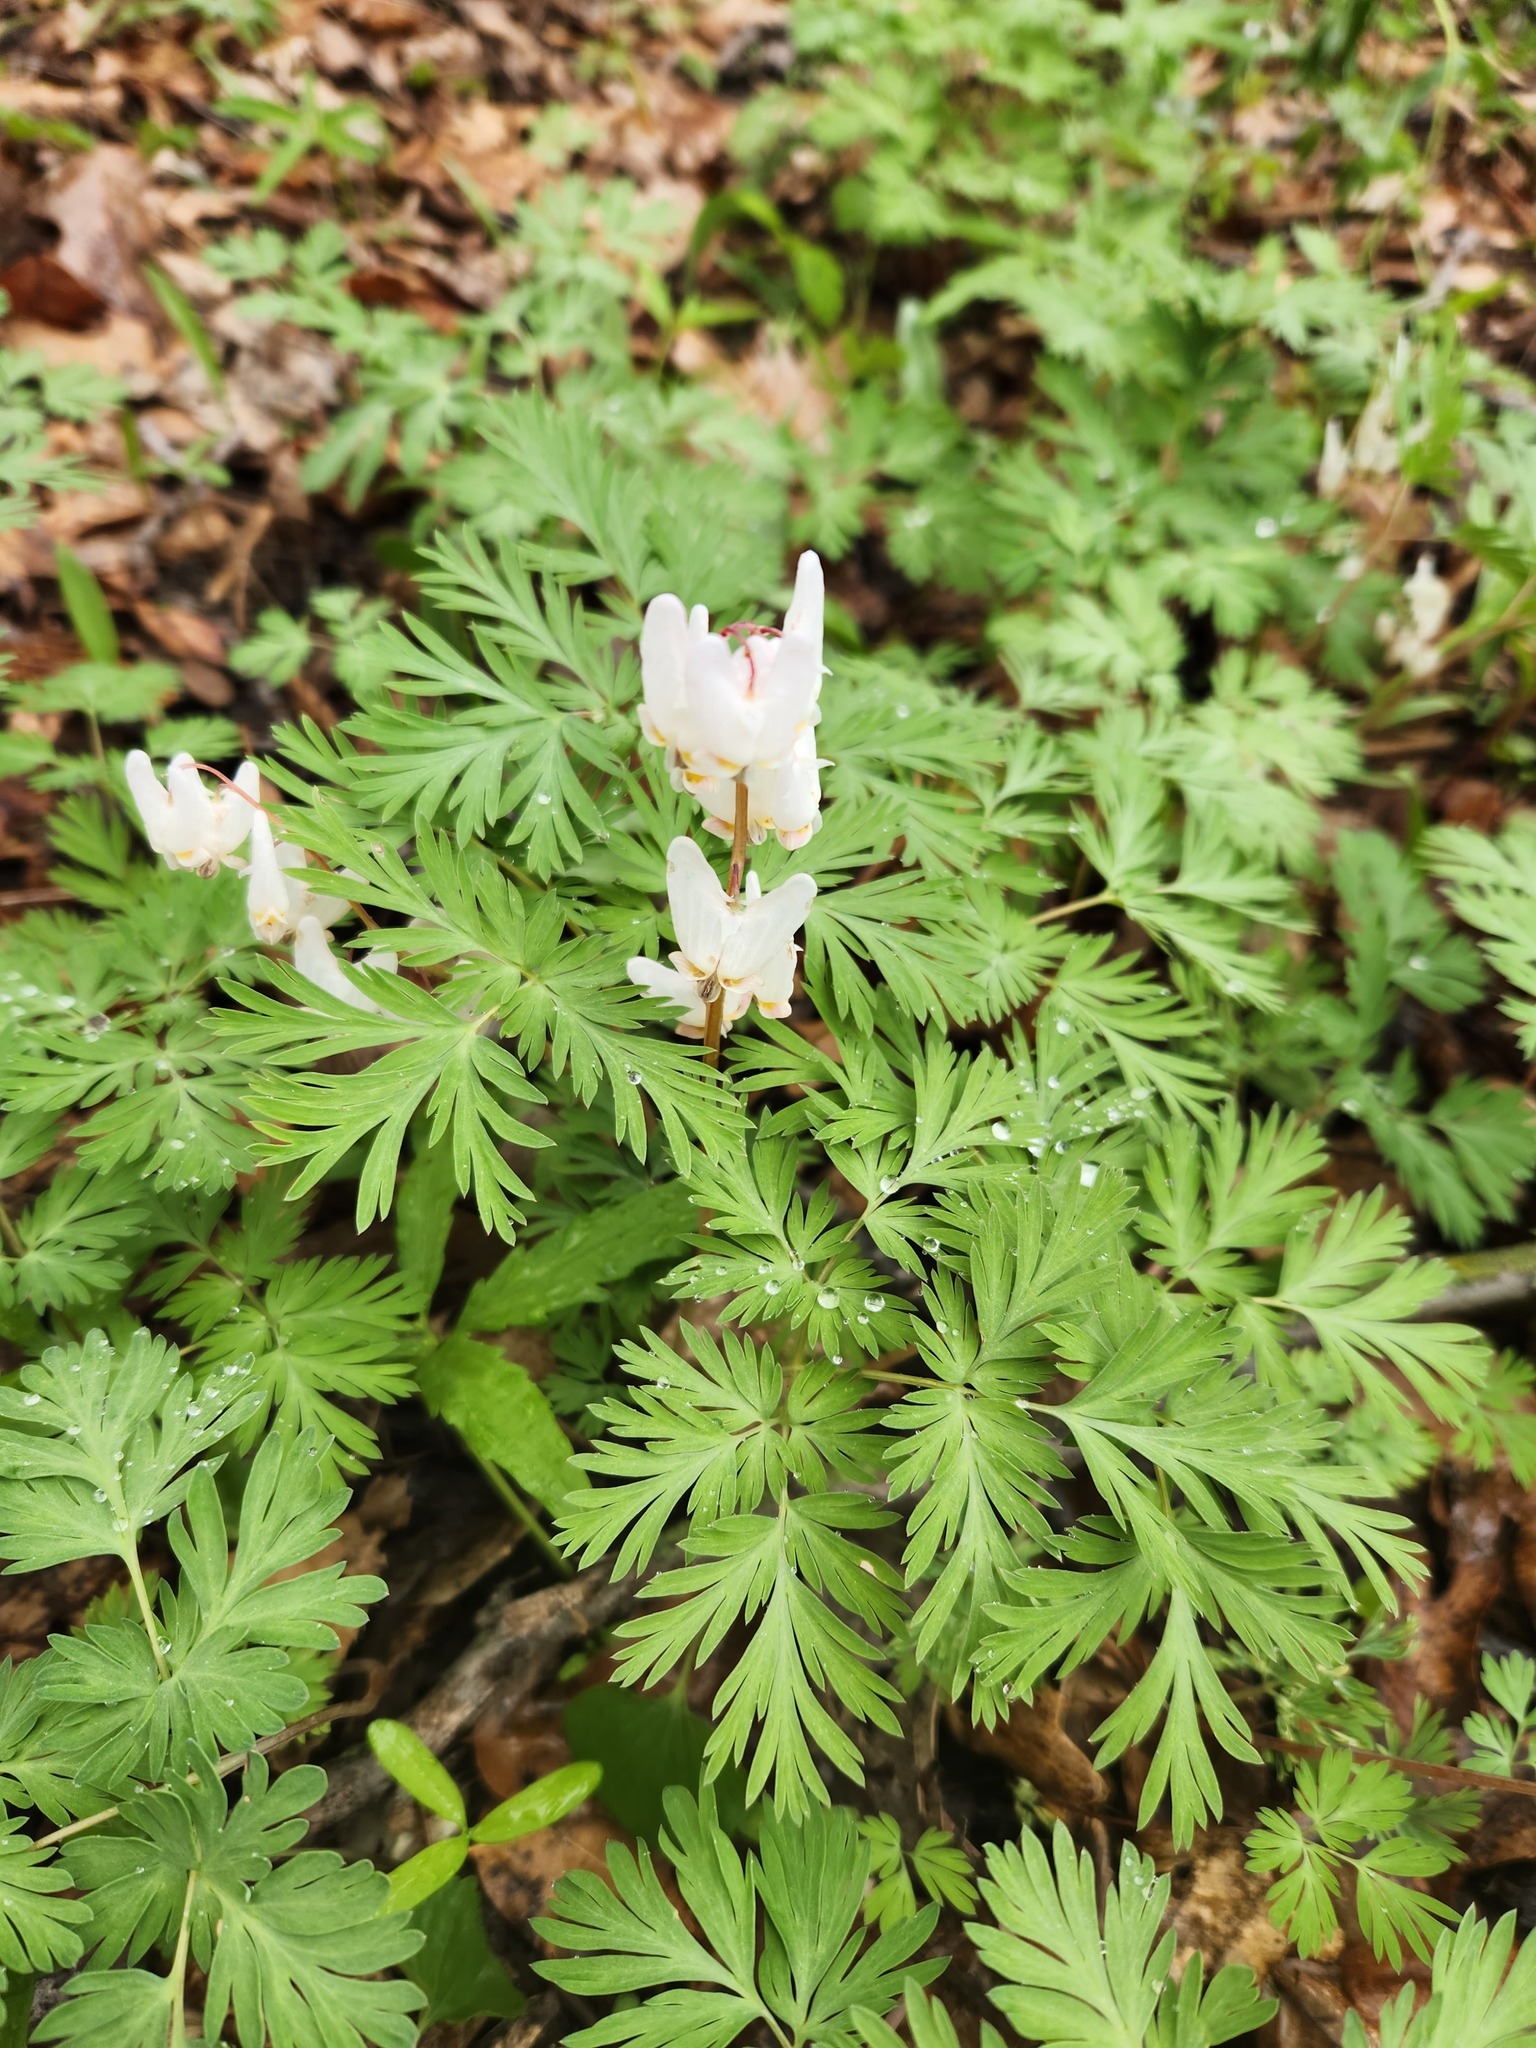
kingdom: Plantae
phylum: Tracheophyta
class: Magnoliopsida
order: Ranunculales
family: Papaveraceae
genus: Dicentra
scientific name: Dicentra cucullaria
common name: Dutchman's breeches
